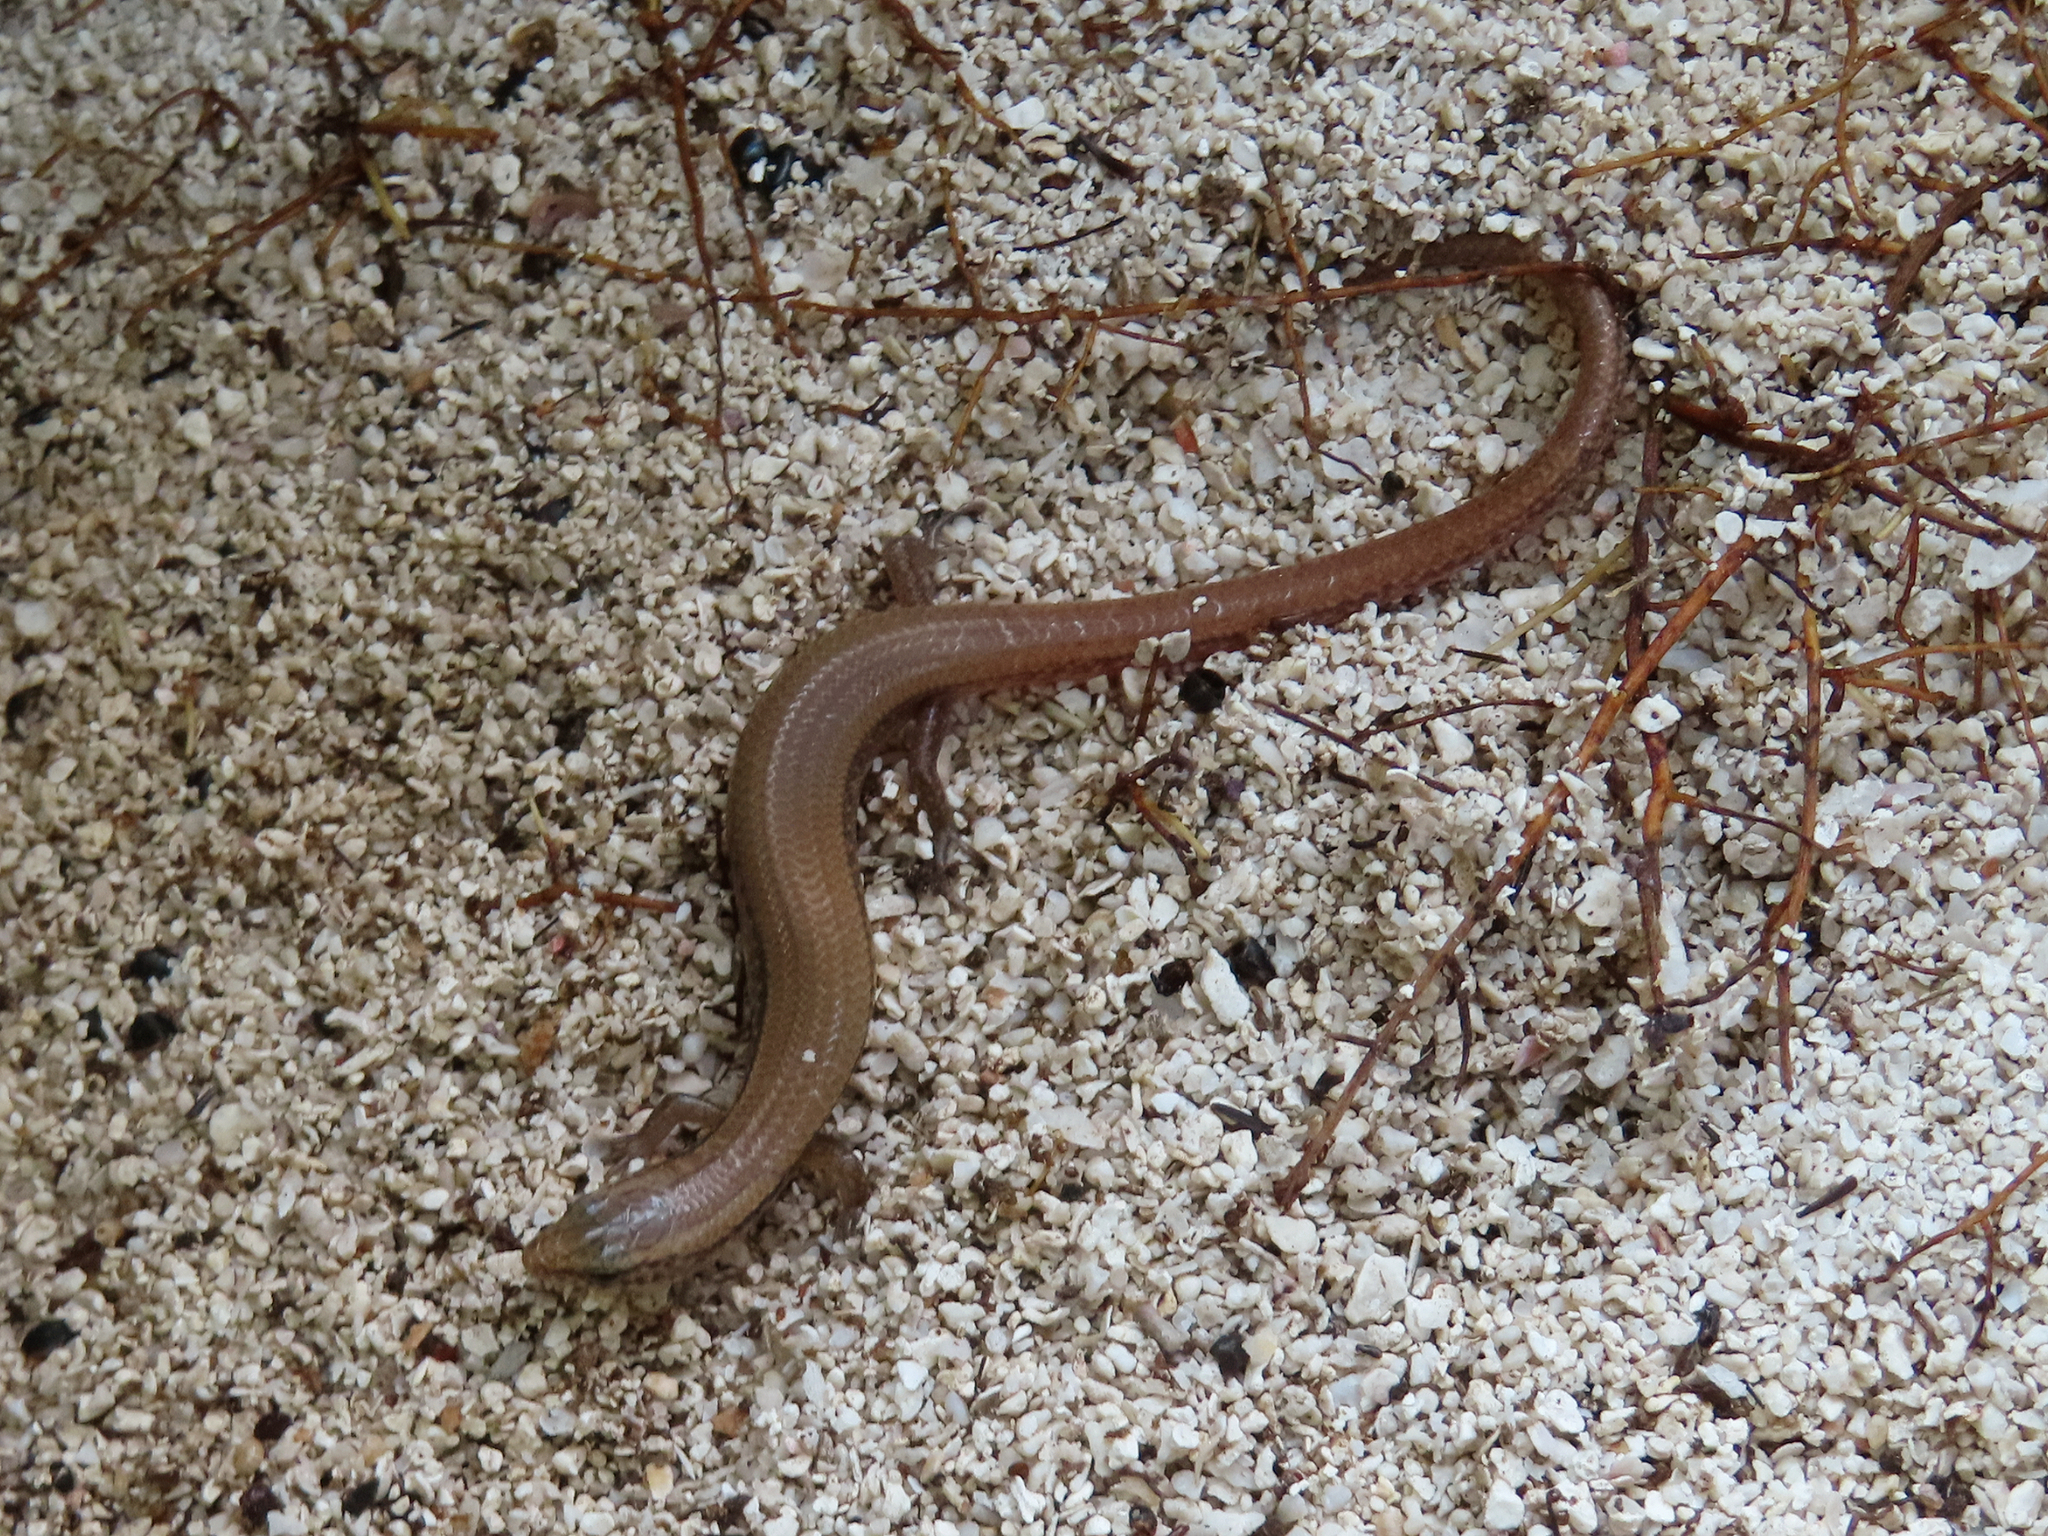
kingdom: Animalia
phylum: Chordata
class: Squamata
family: Scincidae
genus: Riopa
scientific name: Riopa albopunctata
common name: White-spotted supple skink
